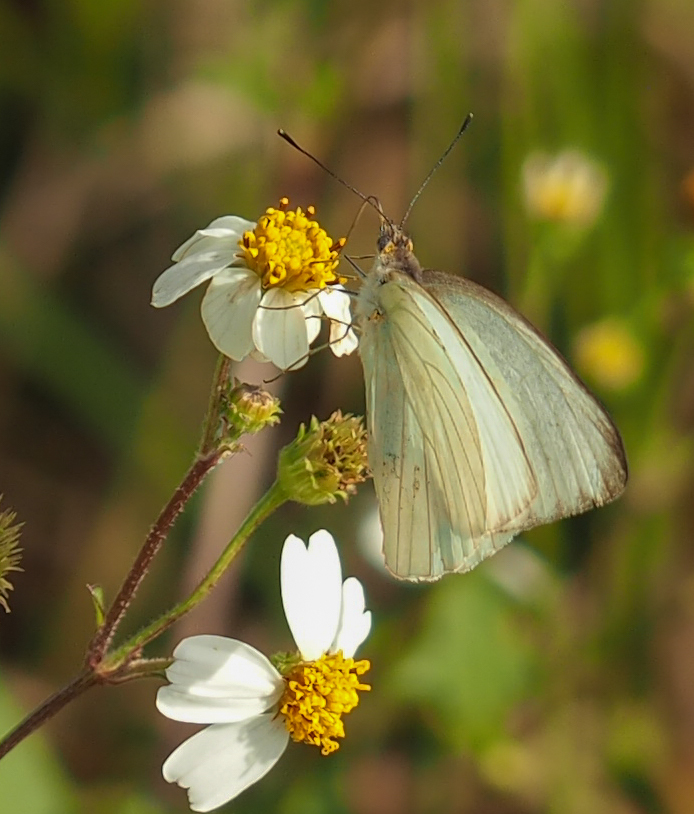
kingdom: Animalia
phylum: Arthropoda
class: Insecta
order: Lepidoptera
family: Pieridae
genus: Ascia
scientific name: Ascia monuste
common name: Great southern white
